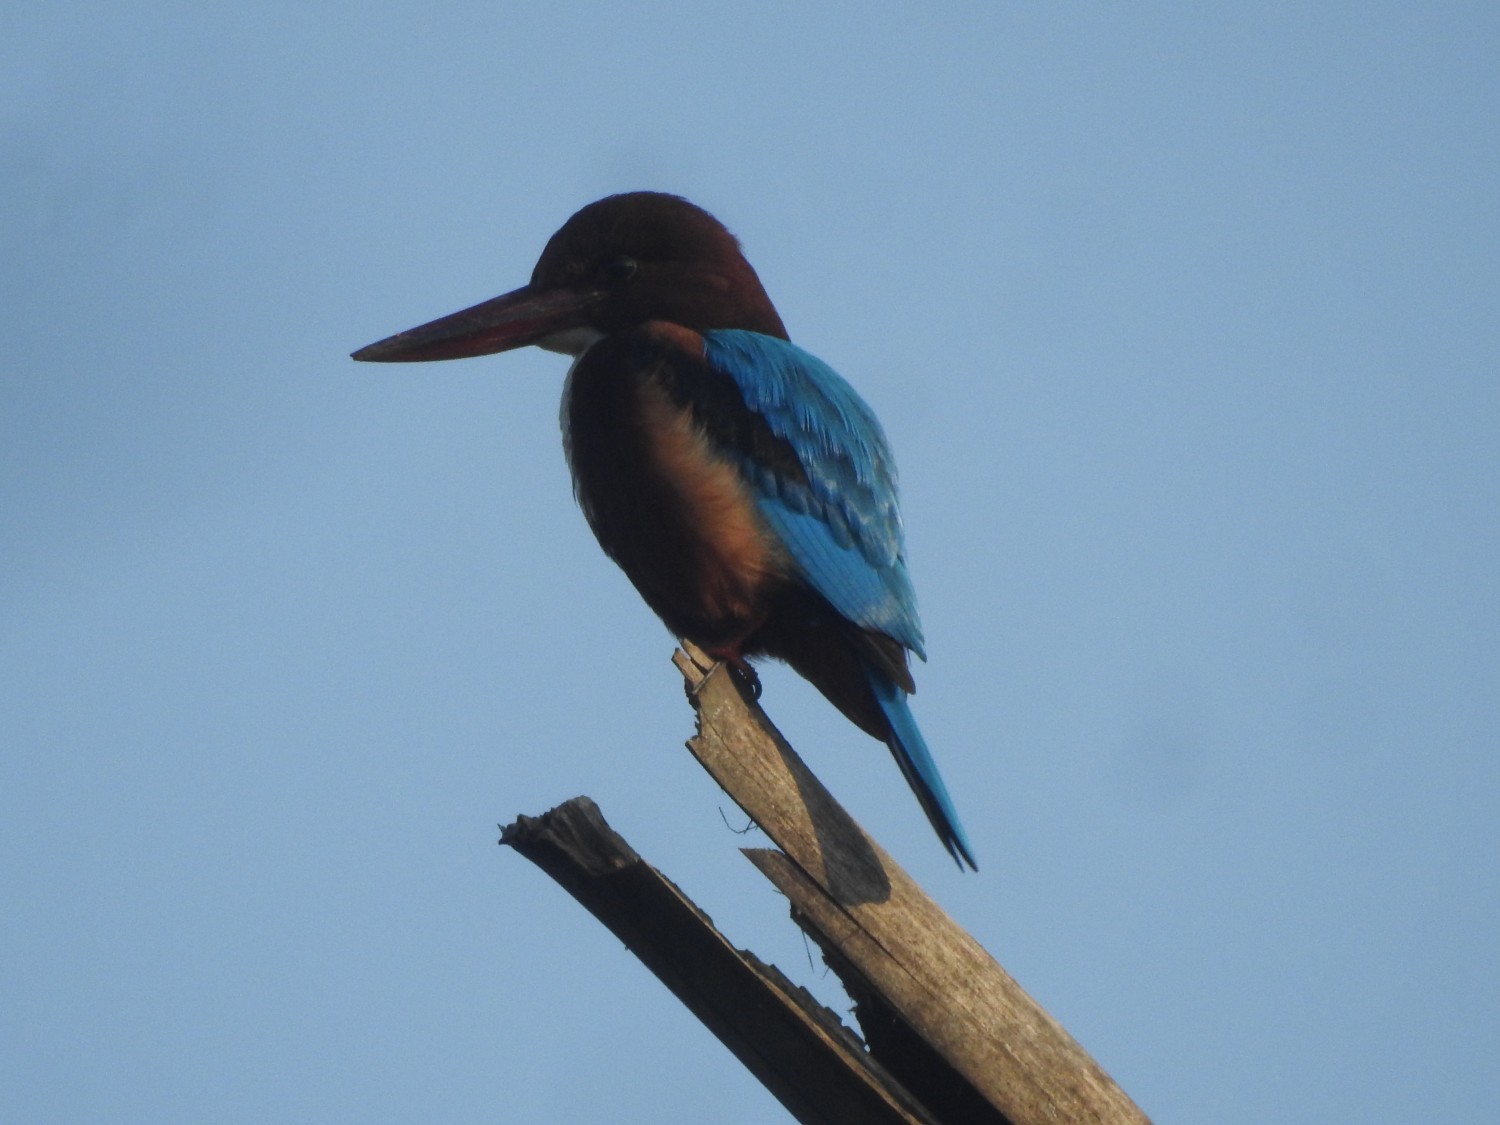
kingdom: Animalia
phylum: Chordata
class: Aves
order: Coraciiformes
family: Alcedinidae
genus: Halcyon
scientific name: Halcyon smyrnensis
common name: White-throated kingfisher
